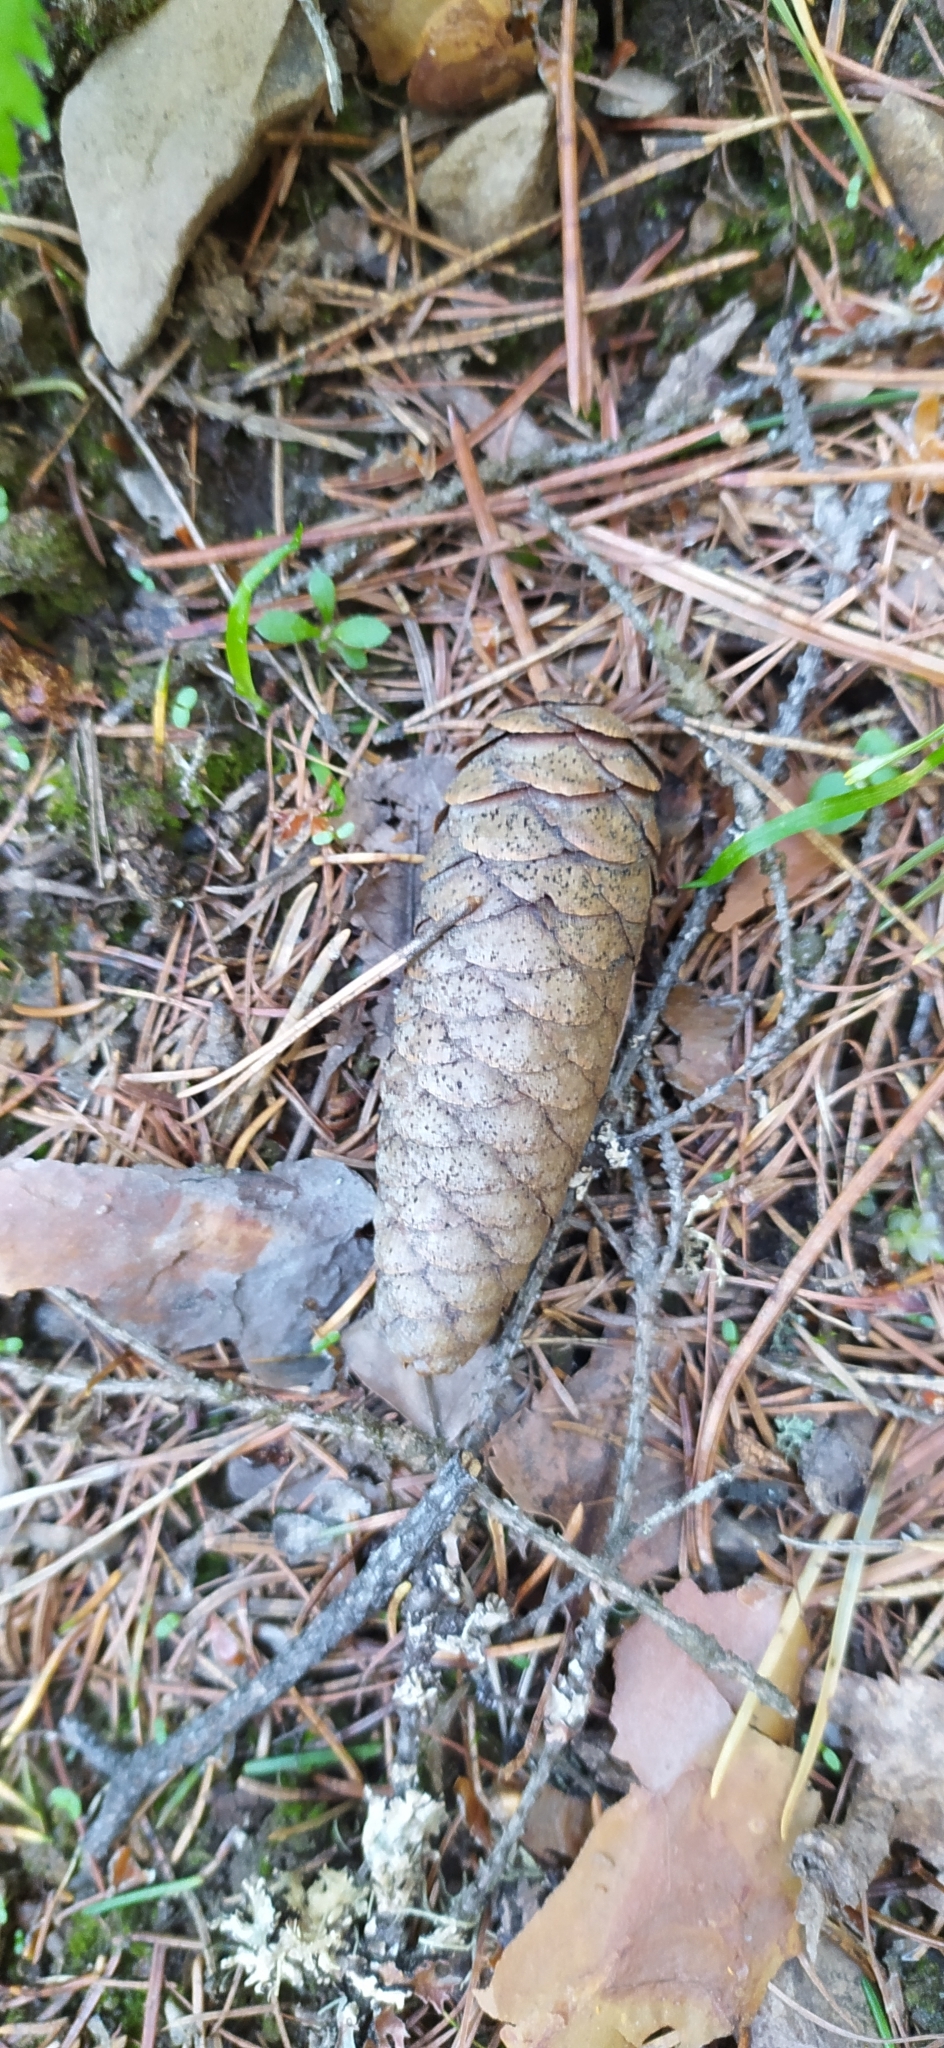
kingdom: Plantae
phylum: Tracheophyta
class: Pinopsida
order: Pinales
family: Pinaceae
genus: Picea
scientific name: Picea obovata
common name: Siberian spruce
